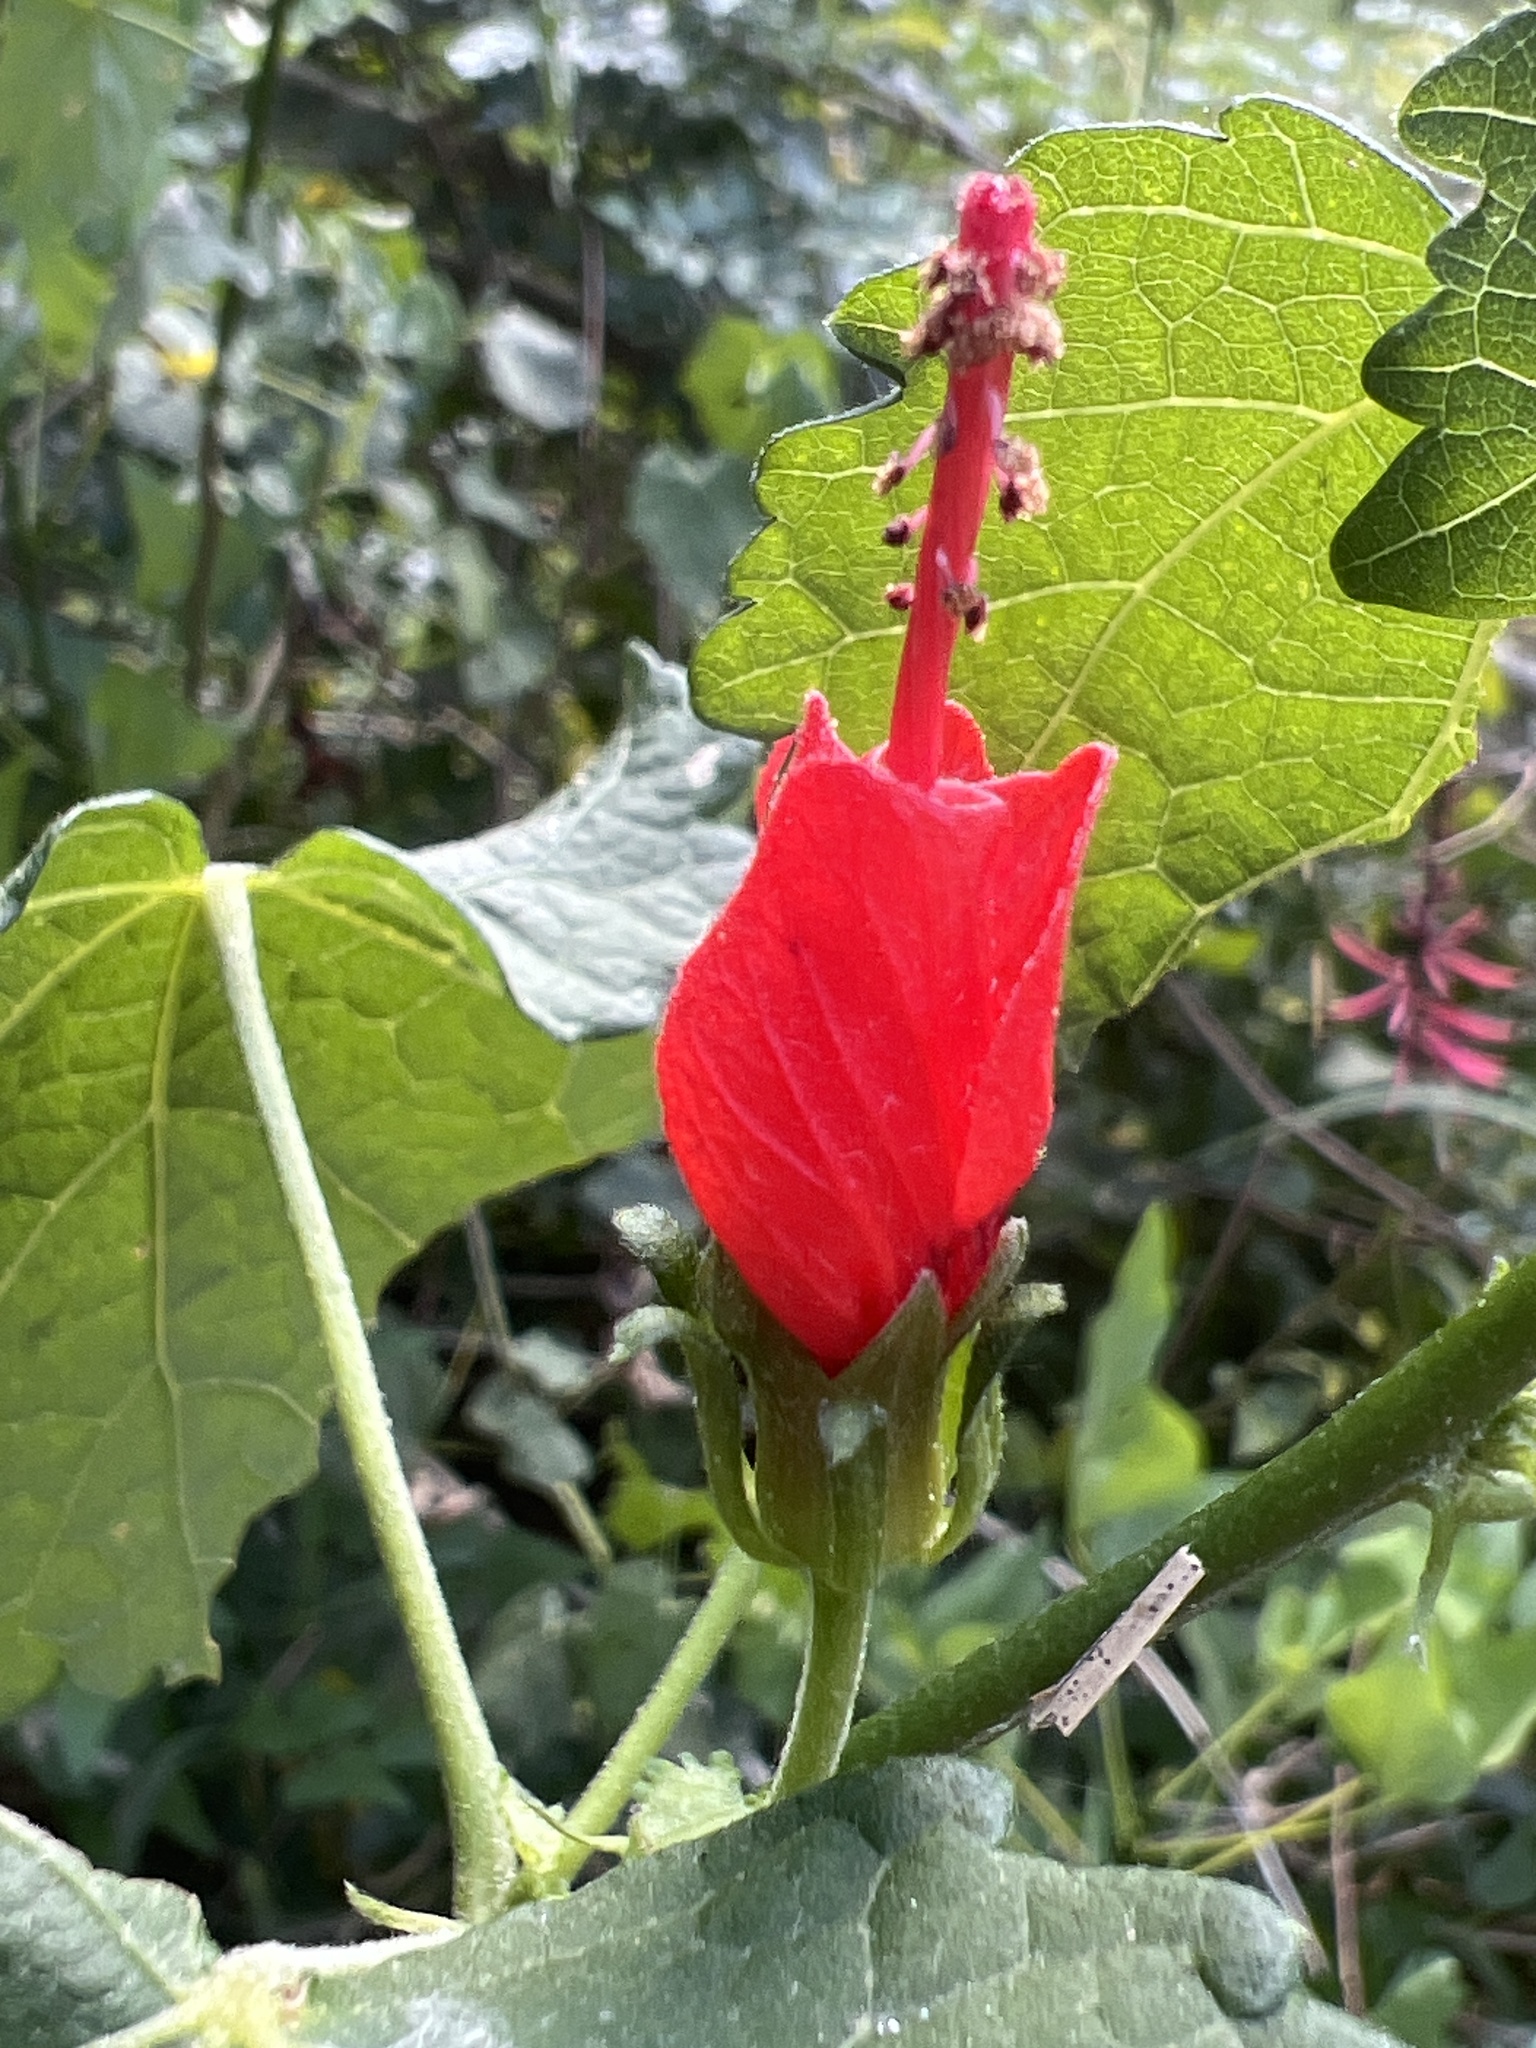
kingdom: Plantae
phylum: Tracheophyta
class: Magnoliopsida
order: Malvales
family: Malvaceae
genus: Malvaviscus
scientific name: Malvaviscus arboreus
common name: Wax mallow
